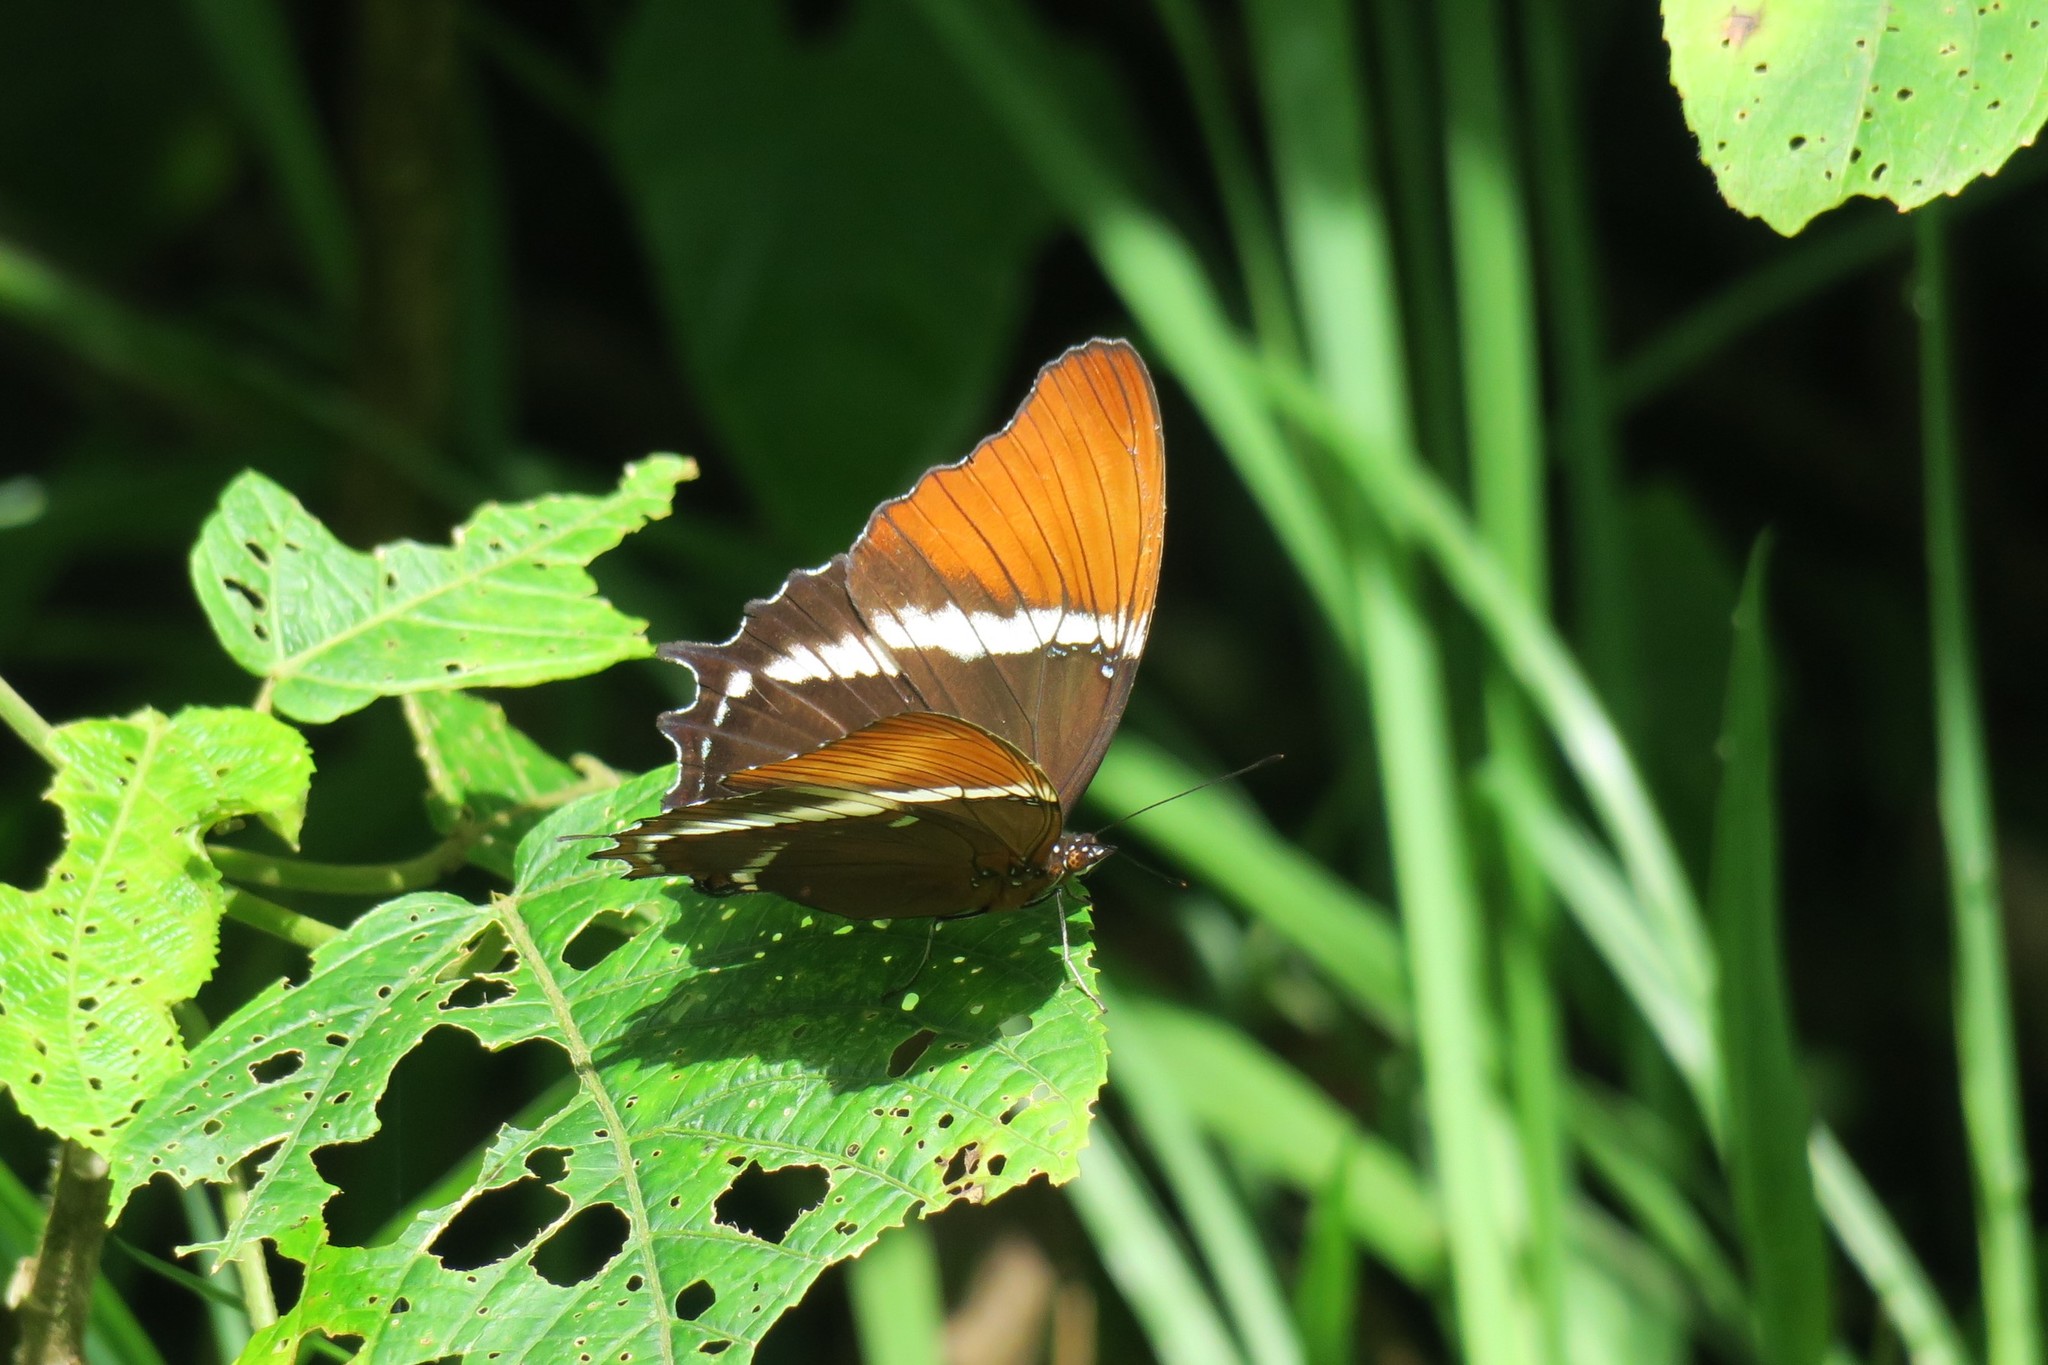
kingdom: Animalia
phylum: Arthropoda
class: Insecta
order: Lepidoptera
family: Nymphalidae
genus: Siproeta
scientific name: Siproeta epaphus
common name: Rusty-tipped page
